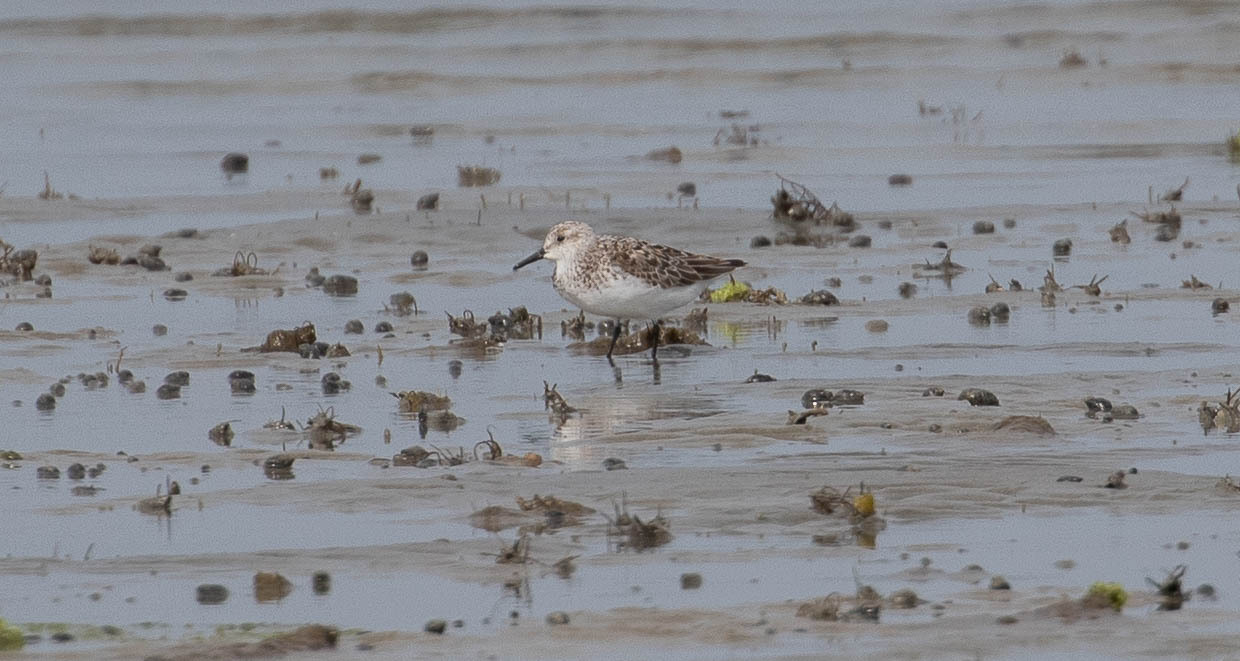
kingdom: Animalia
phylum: Chordata
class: Aves
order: Charadriiformes
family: Scolopacidae
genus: Calidris
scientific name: Calidris pusilla
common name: Semipalmated sandpiper
